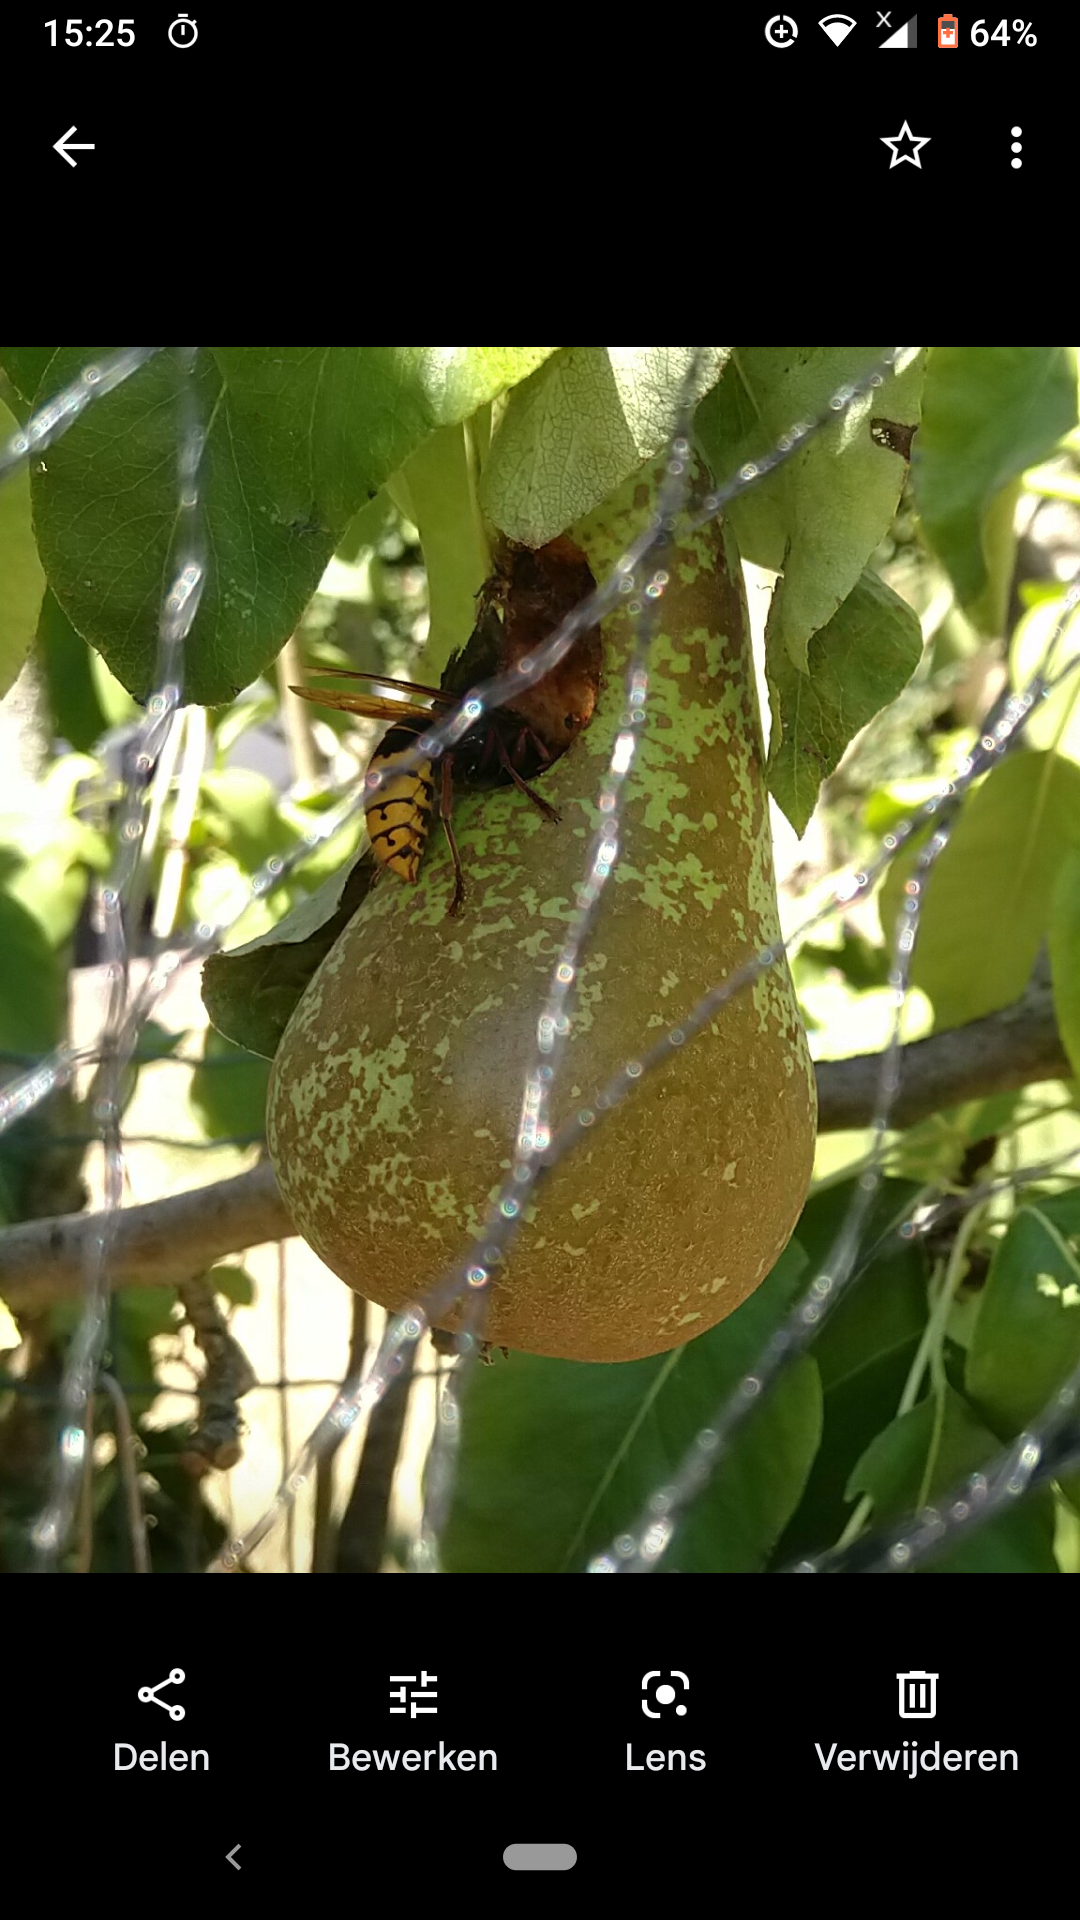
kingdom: Animalia
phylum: Arthropoda
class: Insecta
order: Hymenoptera
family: Vespidae
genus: Vespa
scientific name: Vespa crabro
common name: Hornet
